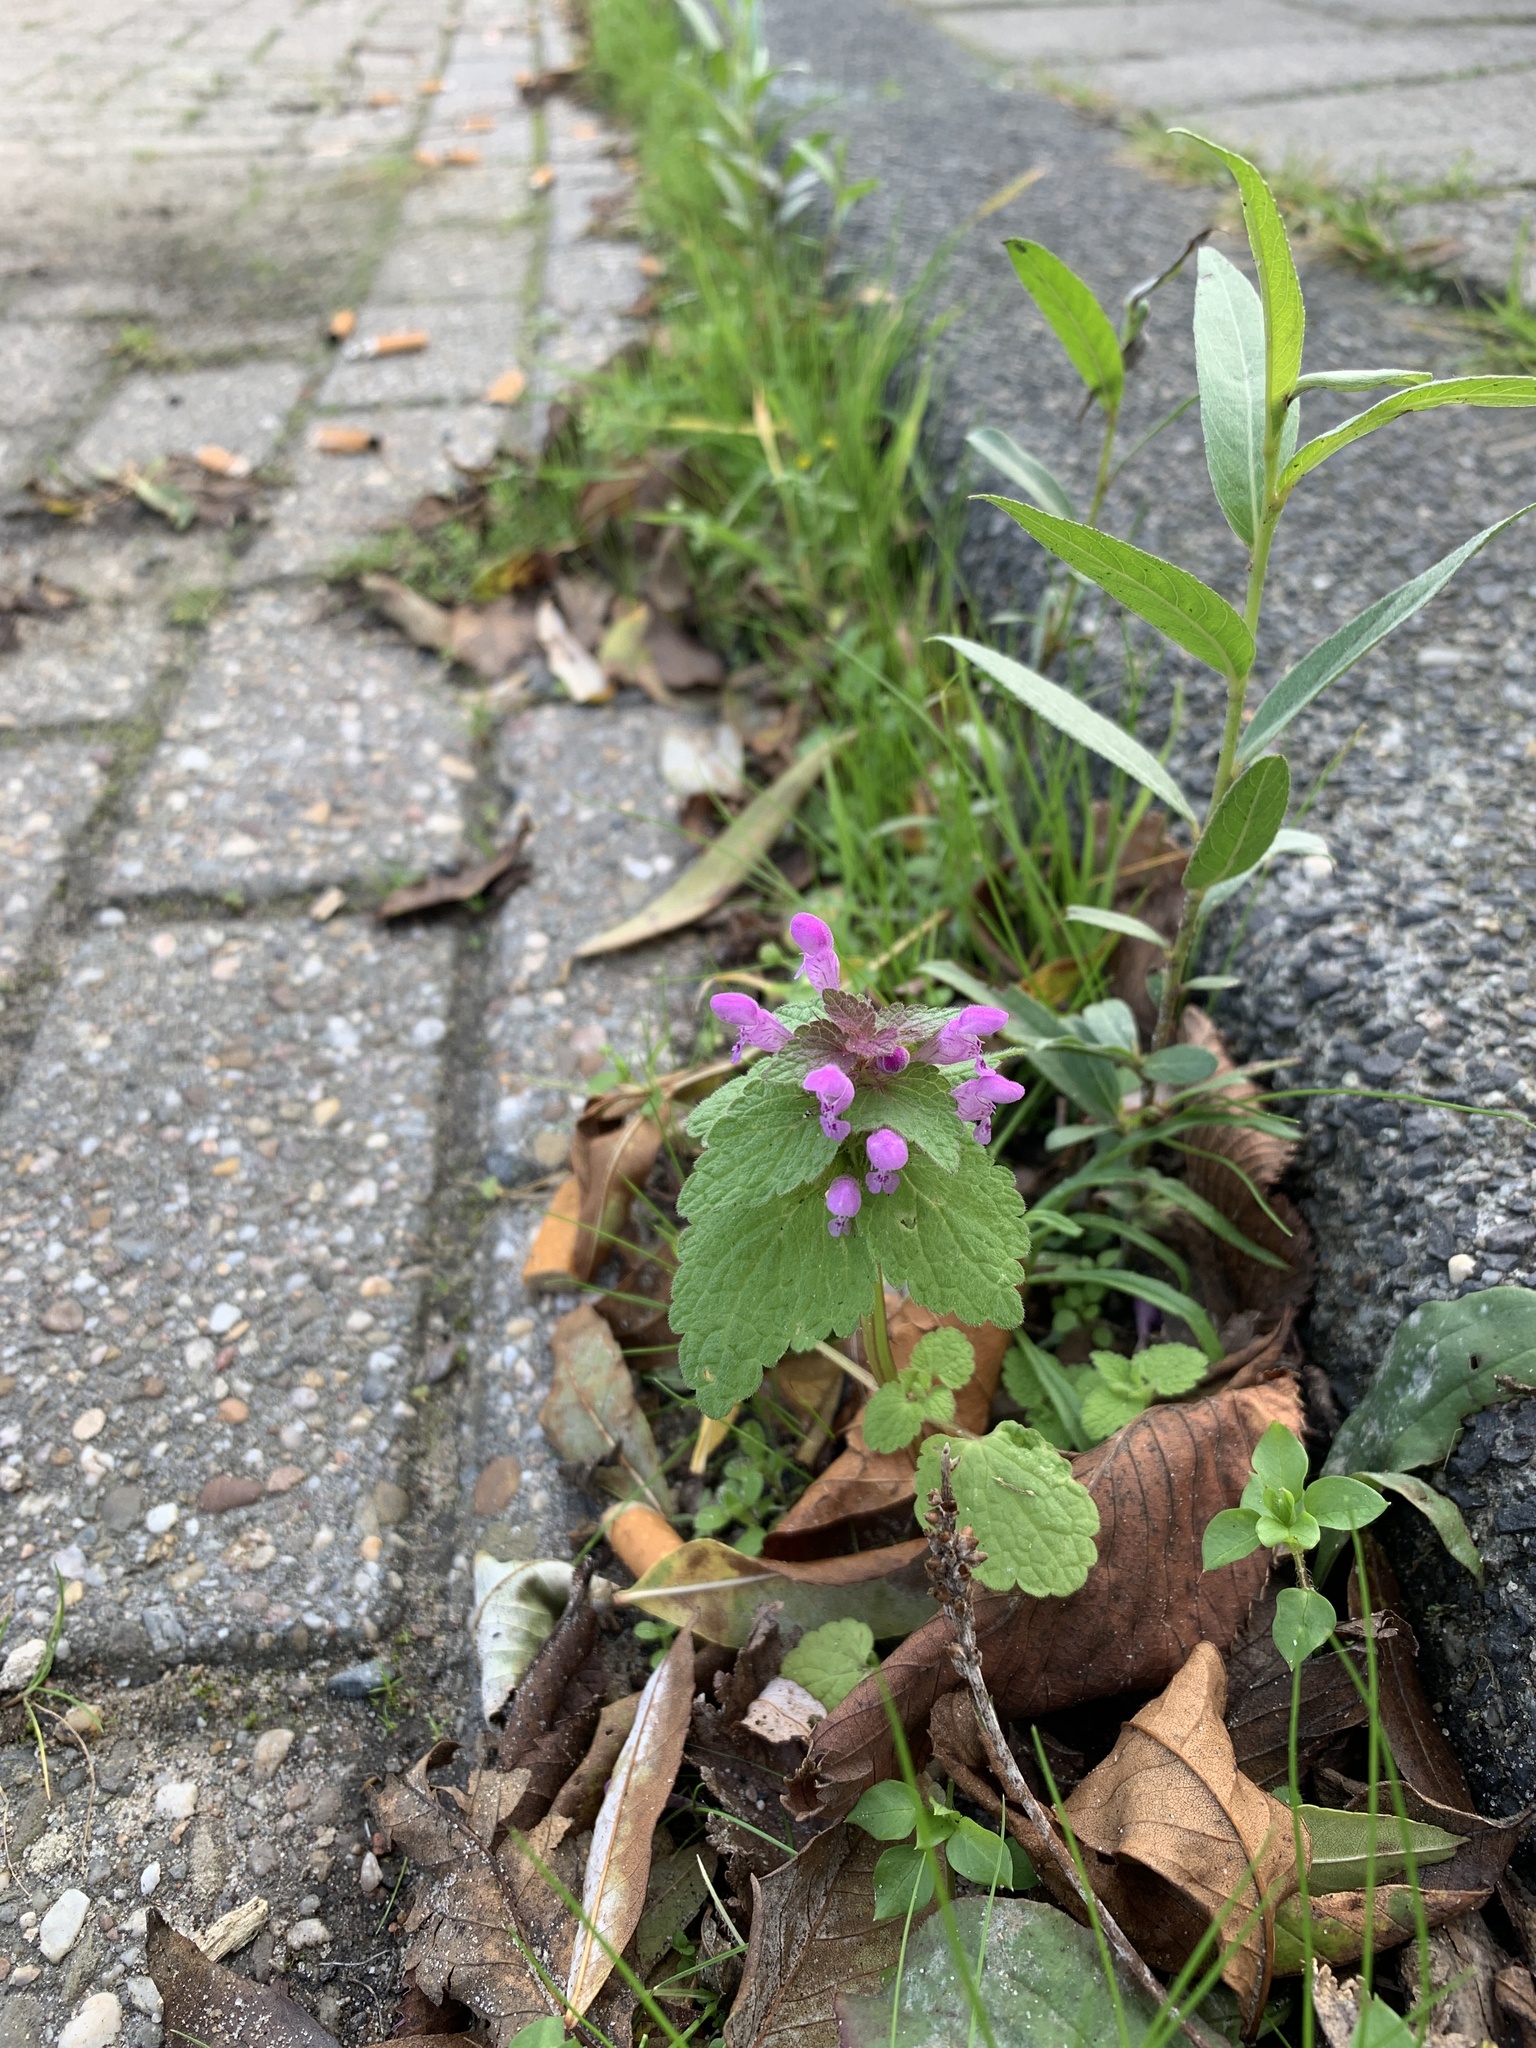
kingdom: Plantae
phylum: Tracheophyta
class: Magnoliopsida
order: Lamiales
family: Lamiaceae
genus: Lamium
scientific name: Lamium purpureum
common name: Red dead-nettle
